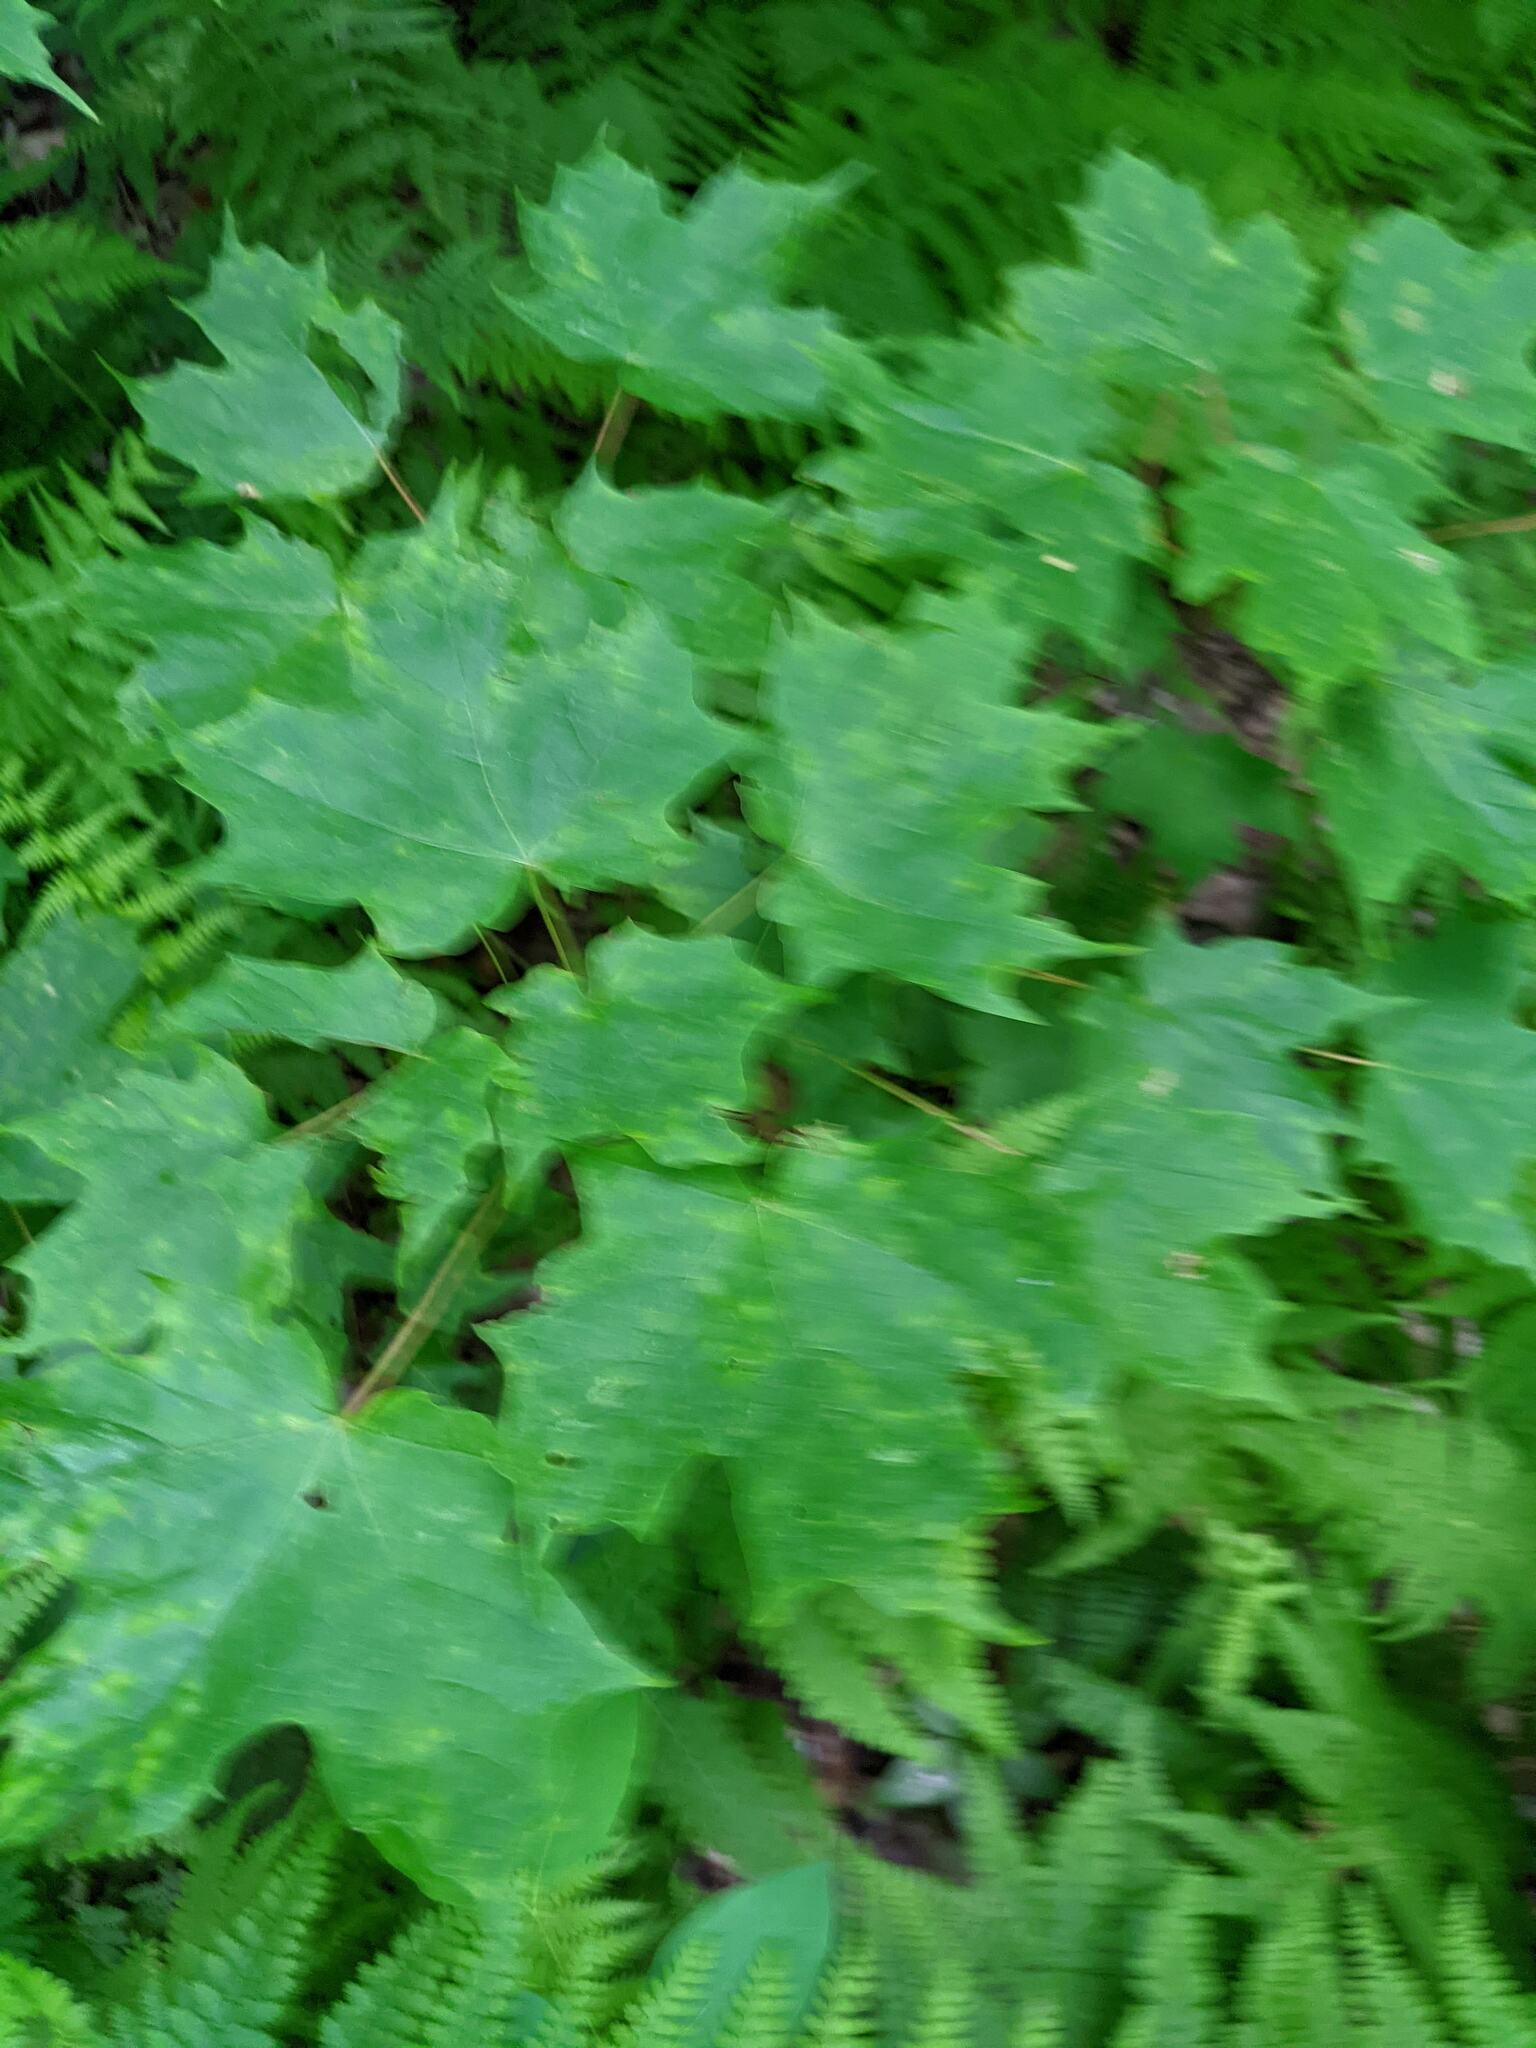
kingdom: Plantae
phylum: Tracheophyta
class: Magnoliopsida
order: Sapindales
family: Sapindaceae
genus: Acer
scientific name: Acer saccharum
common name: Sugar maple
